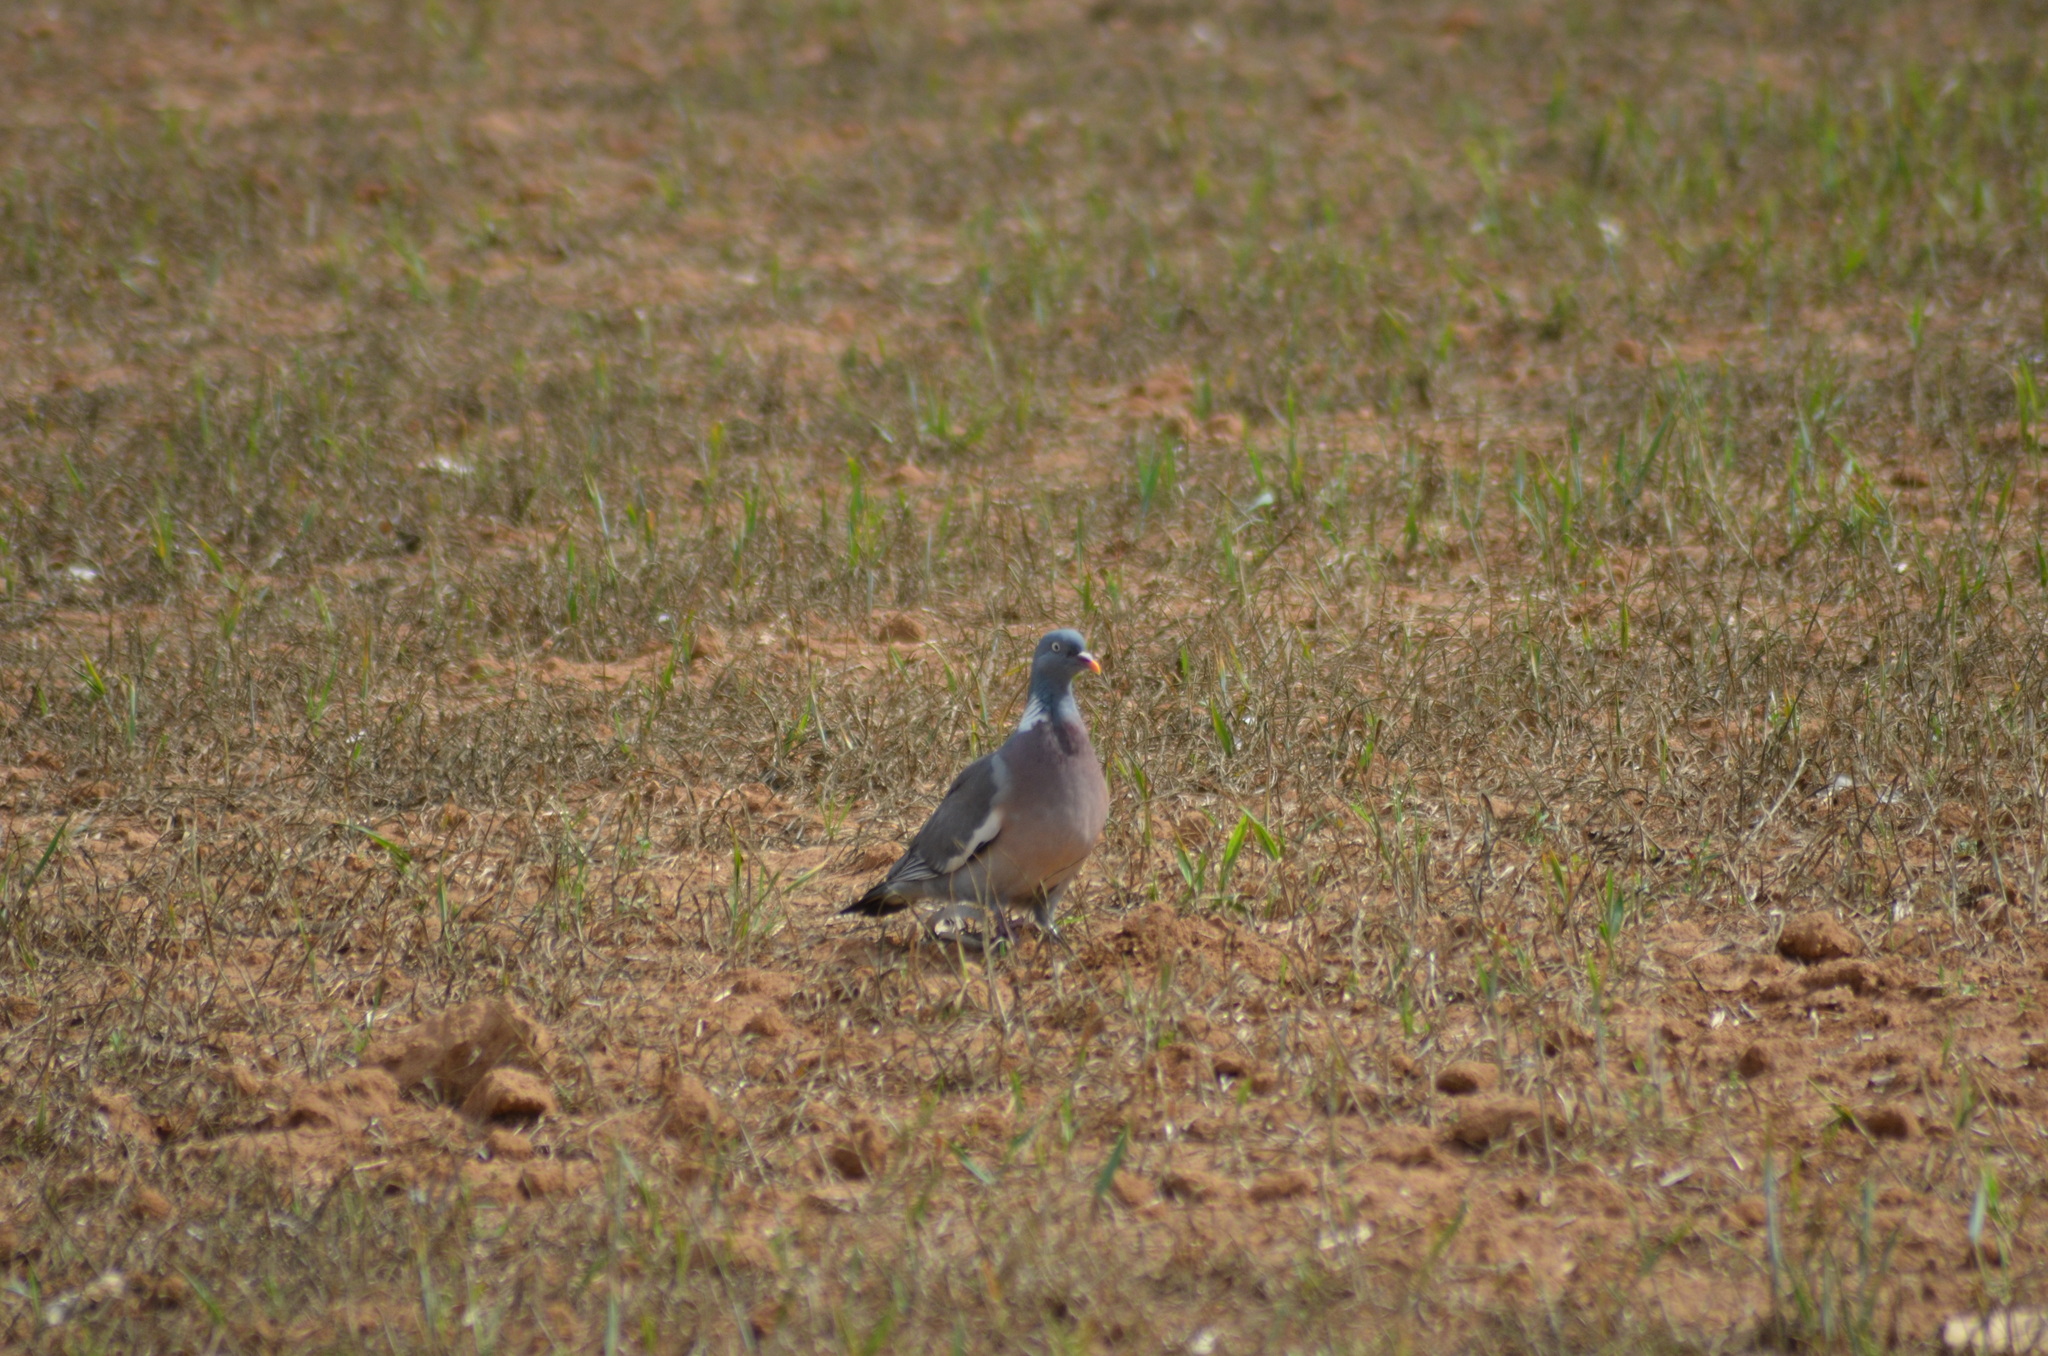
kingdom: Animalia
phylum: Chordata
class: Aves
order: Columbiformes
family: Columbidae
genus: Columba
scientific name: Columba palumbus
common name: Common wood pigeon
